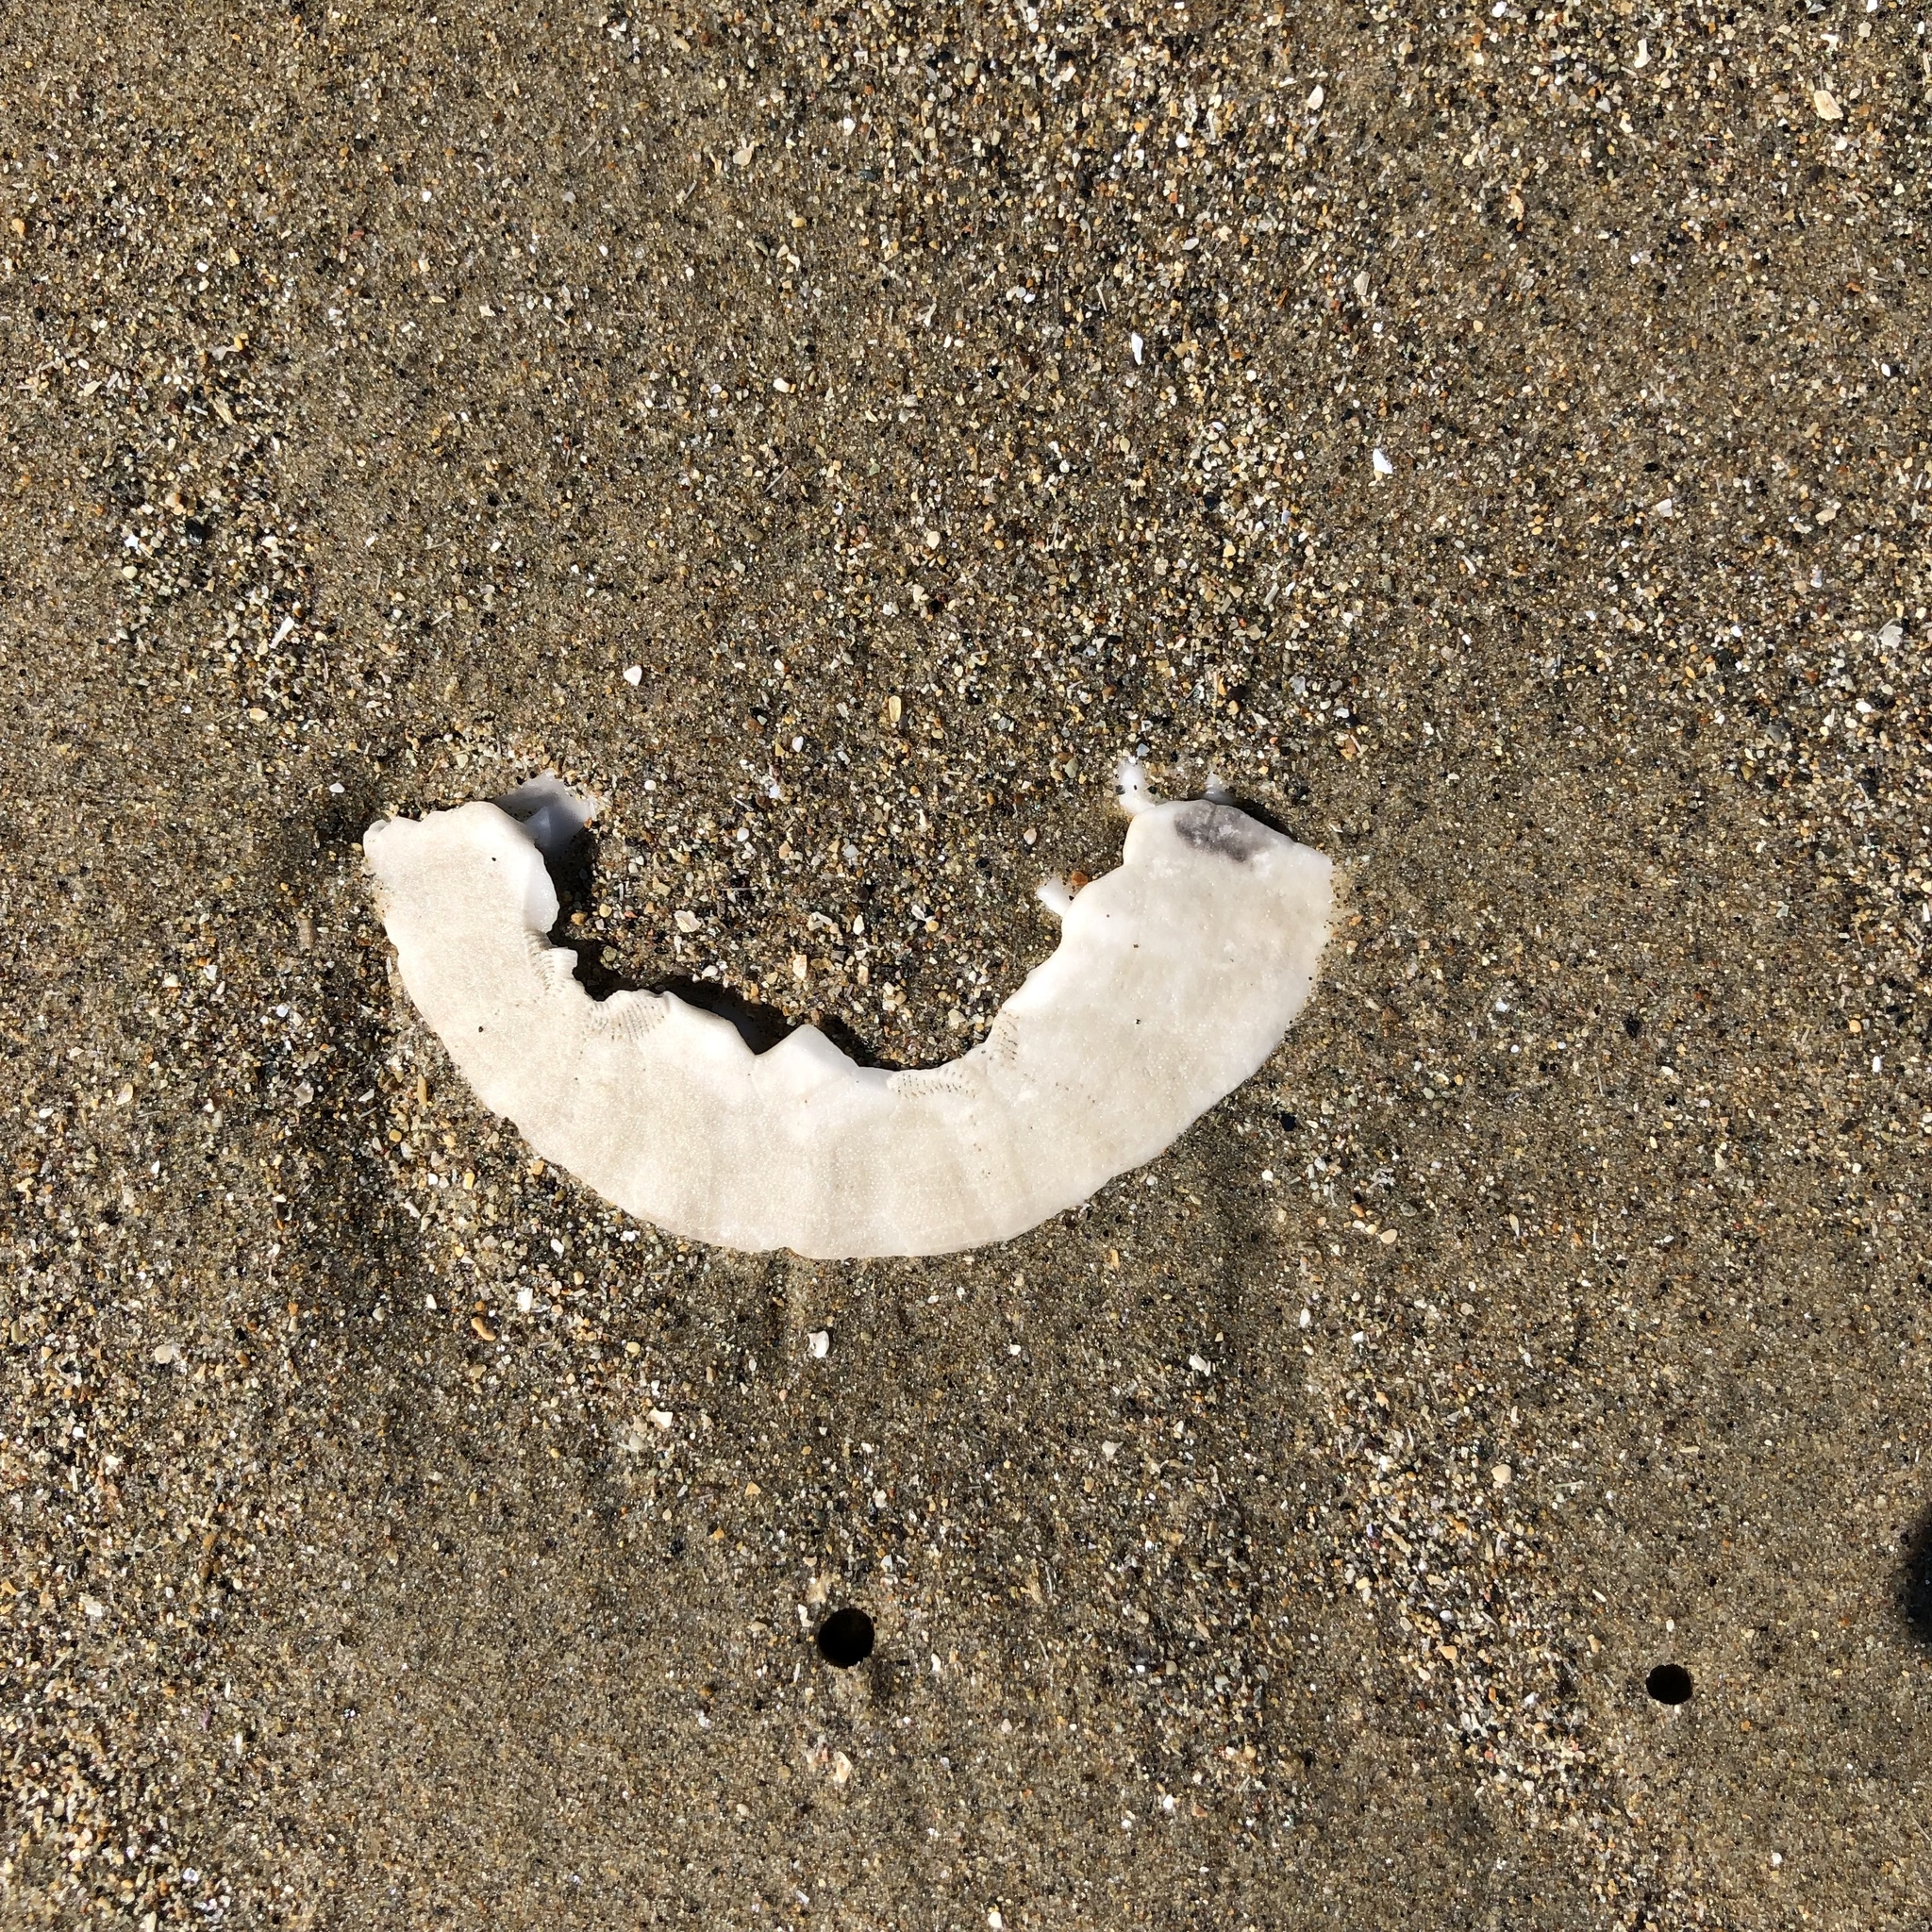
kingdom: Animalia
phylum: Echinodermata
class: Echinoidea
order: Echinolampadacea
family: Dendrasteridae
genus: Dendraster
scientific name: Dendraster excentricus
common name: Eccentric sand dollar sea urchin
